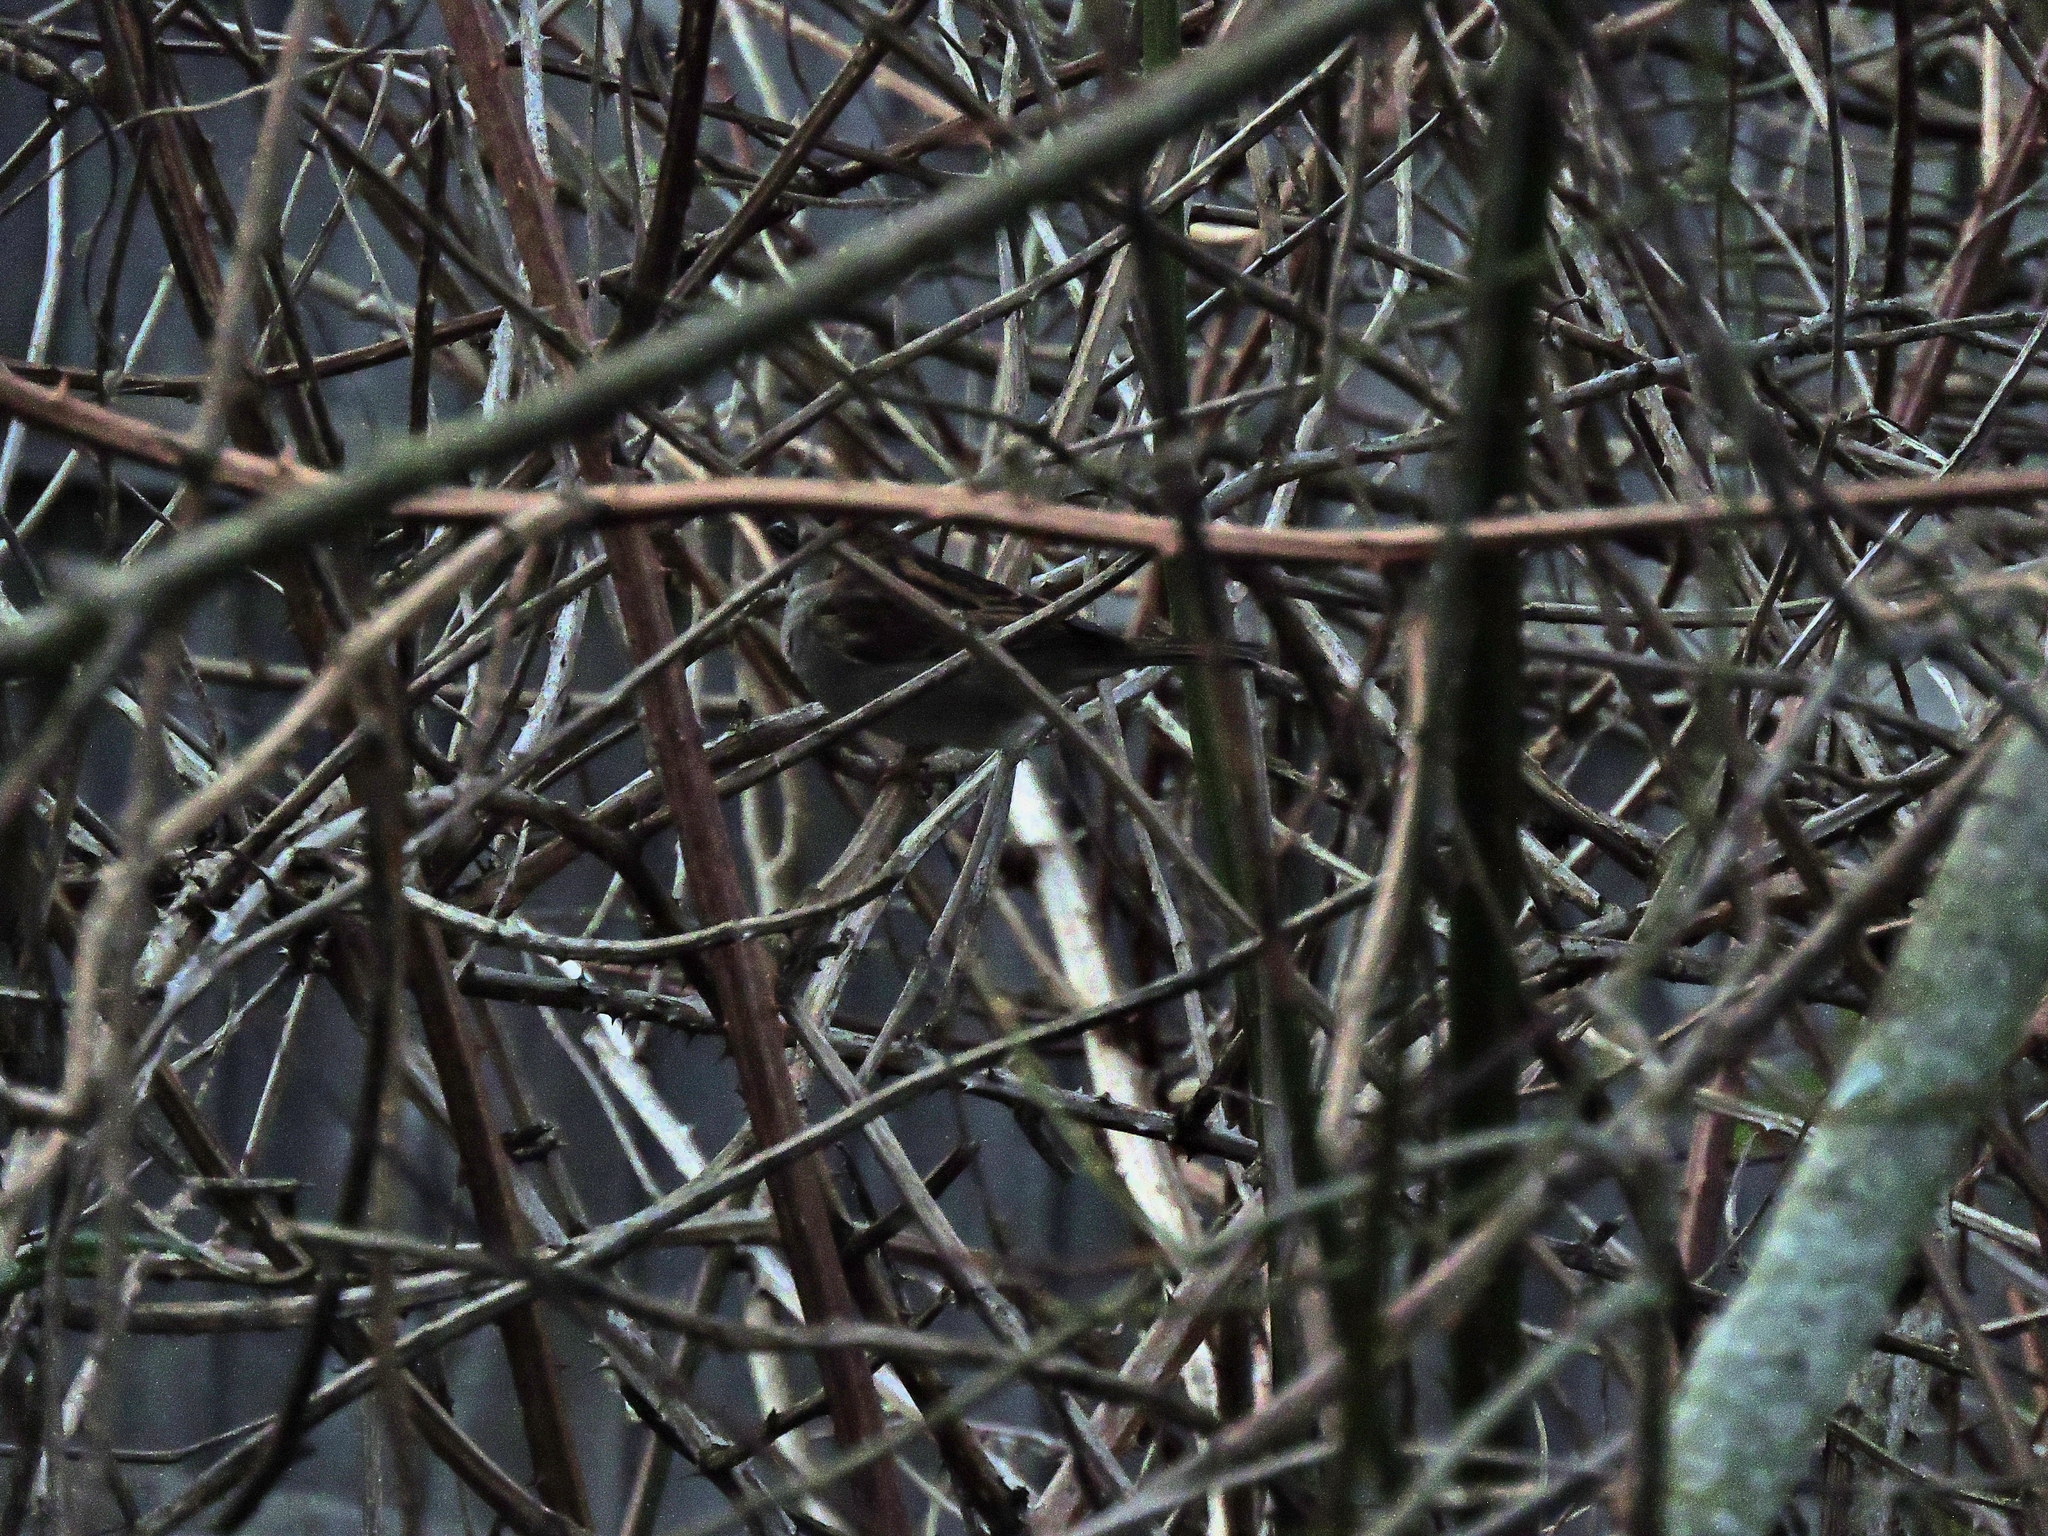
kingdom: Animalia
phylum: Chordata
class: Aves
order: Passeriformes
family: Passeridae
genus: Passer
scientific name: Passer domesticus
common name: House sparrow
